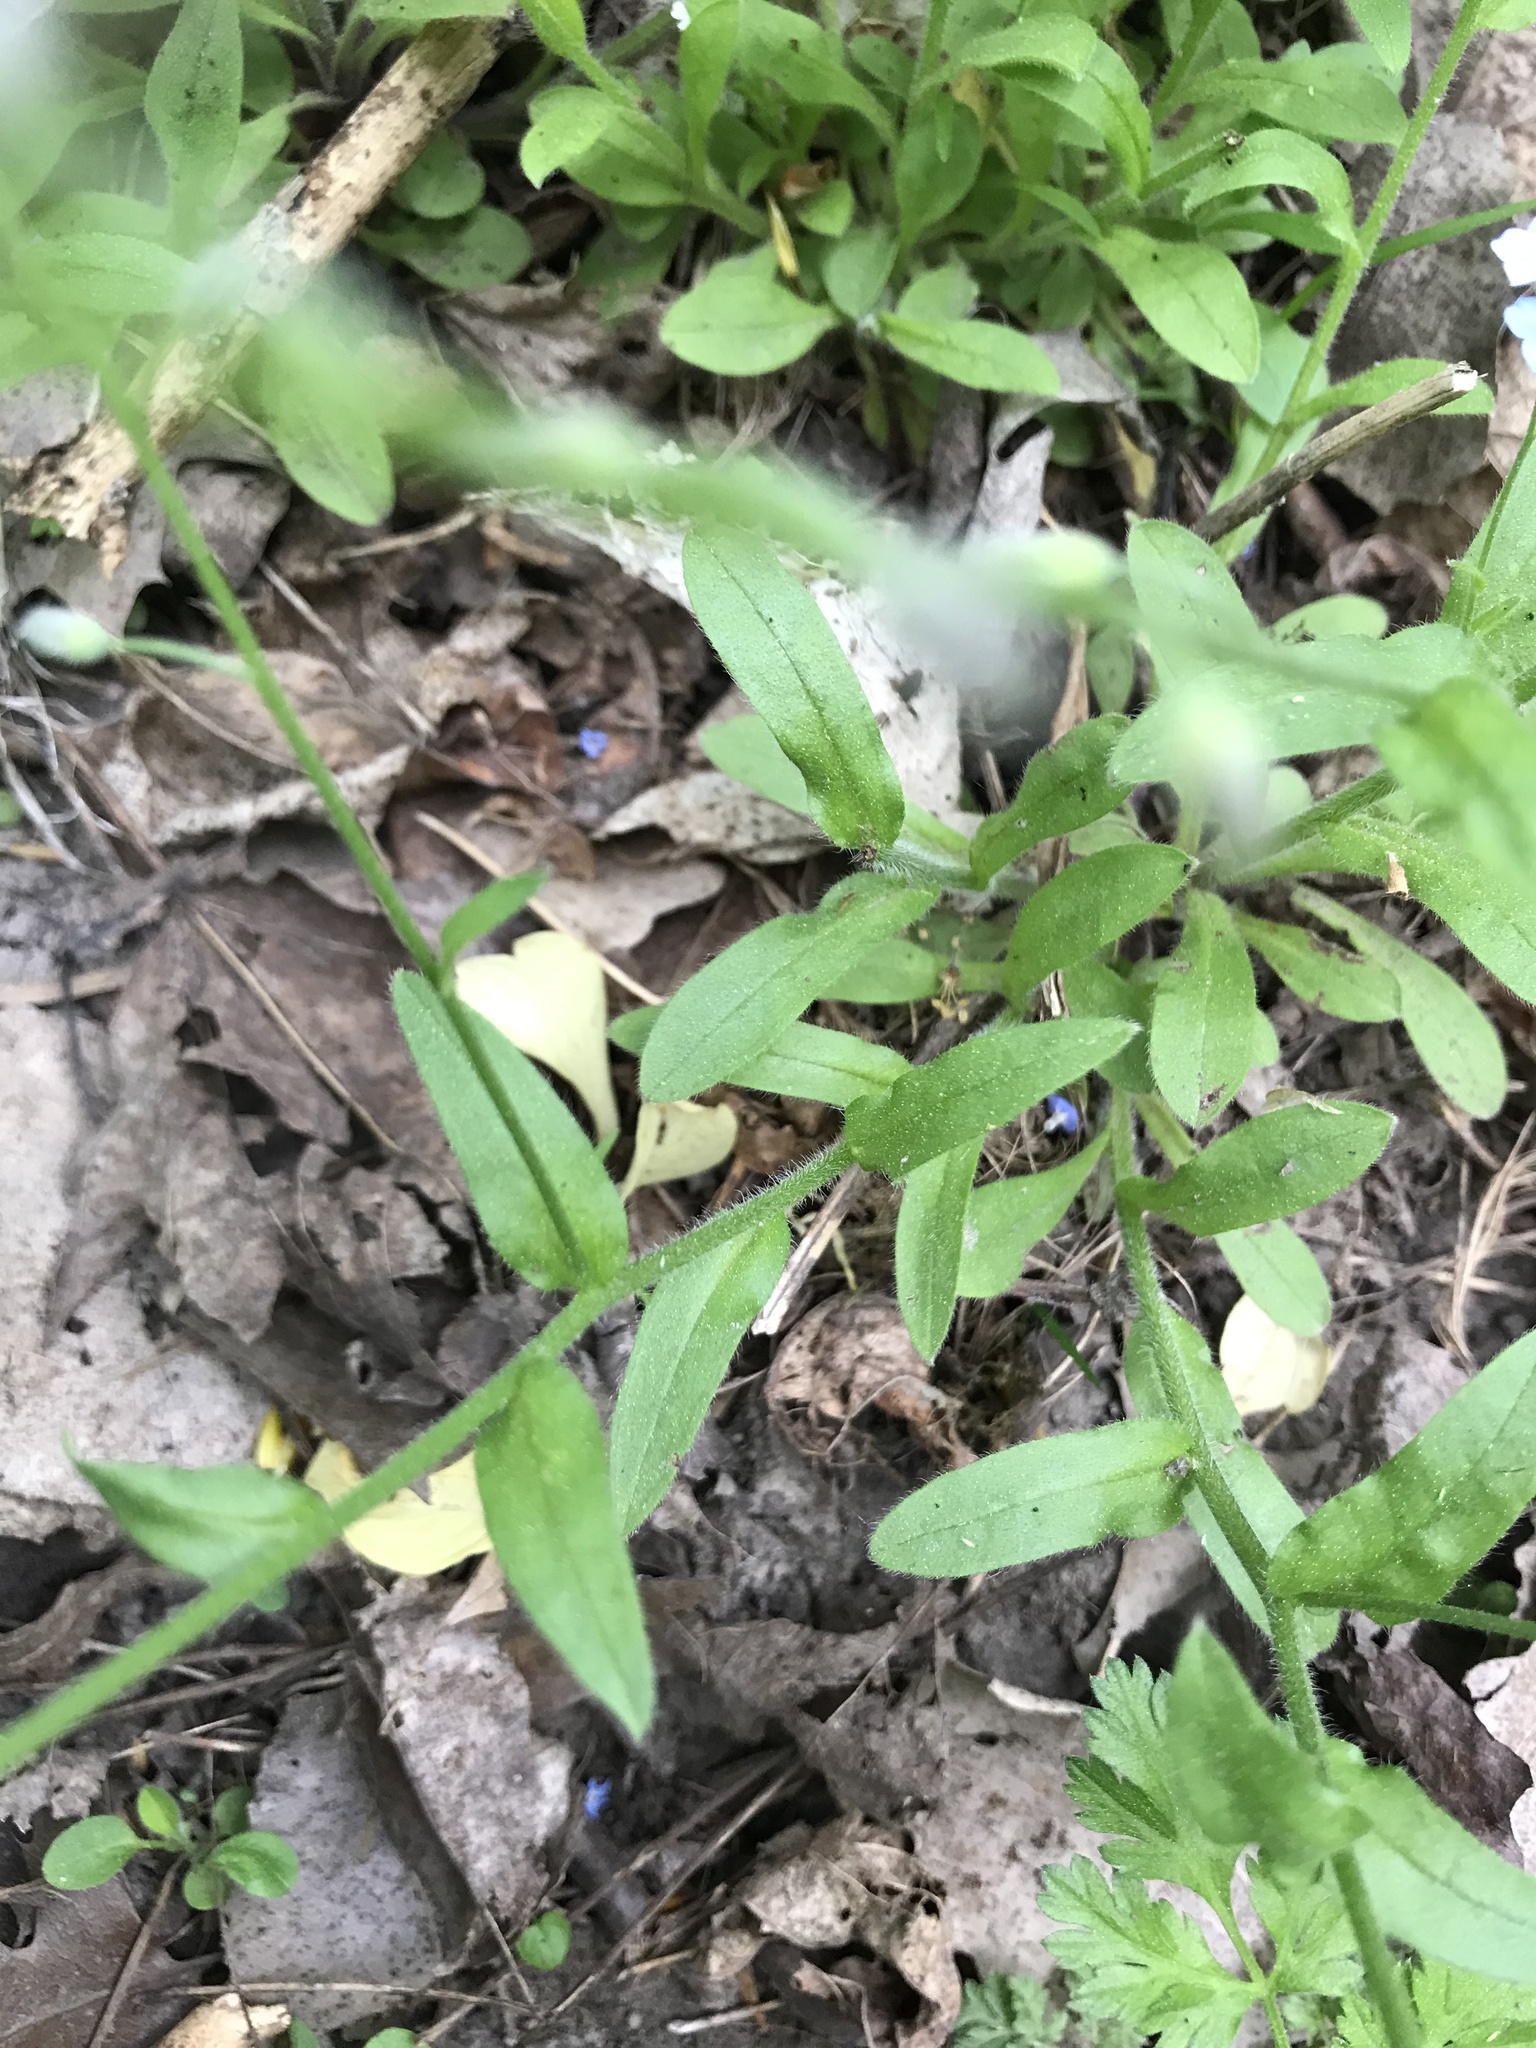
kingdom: Plantae
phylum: Tracheophyta
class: Magnoliopsida
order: Boraginales
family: Boraginaceae
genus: Myosotis
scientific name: Myosotis scorpioides
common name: Water forget-me-not
